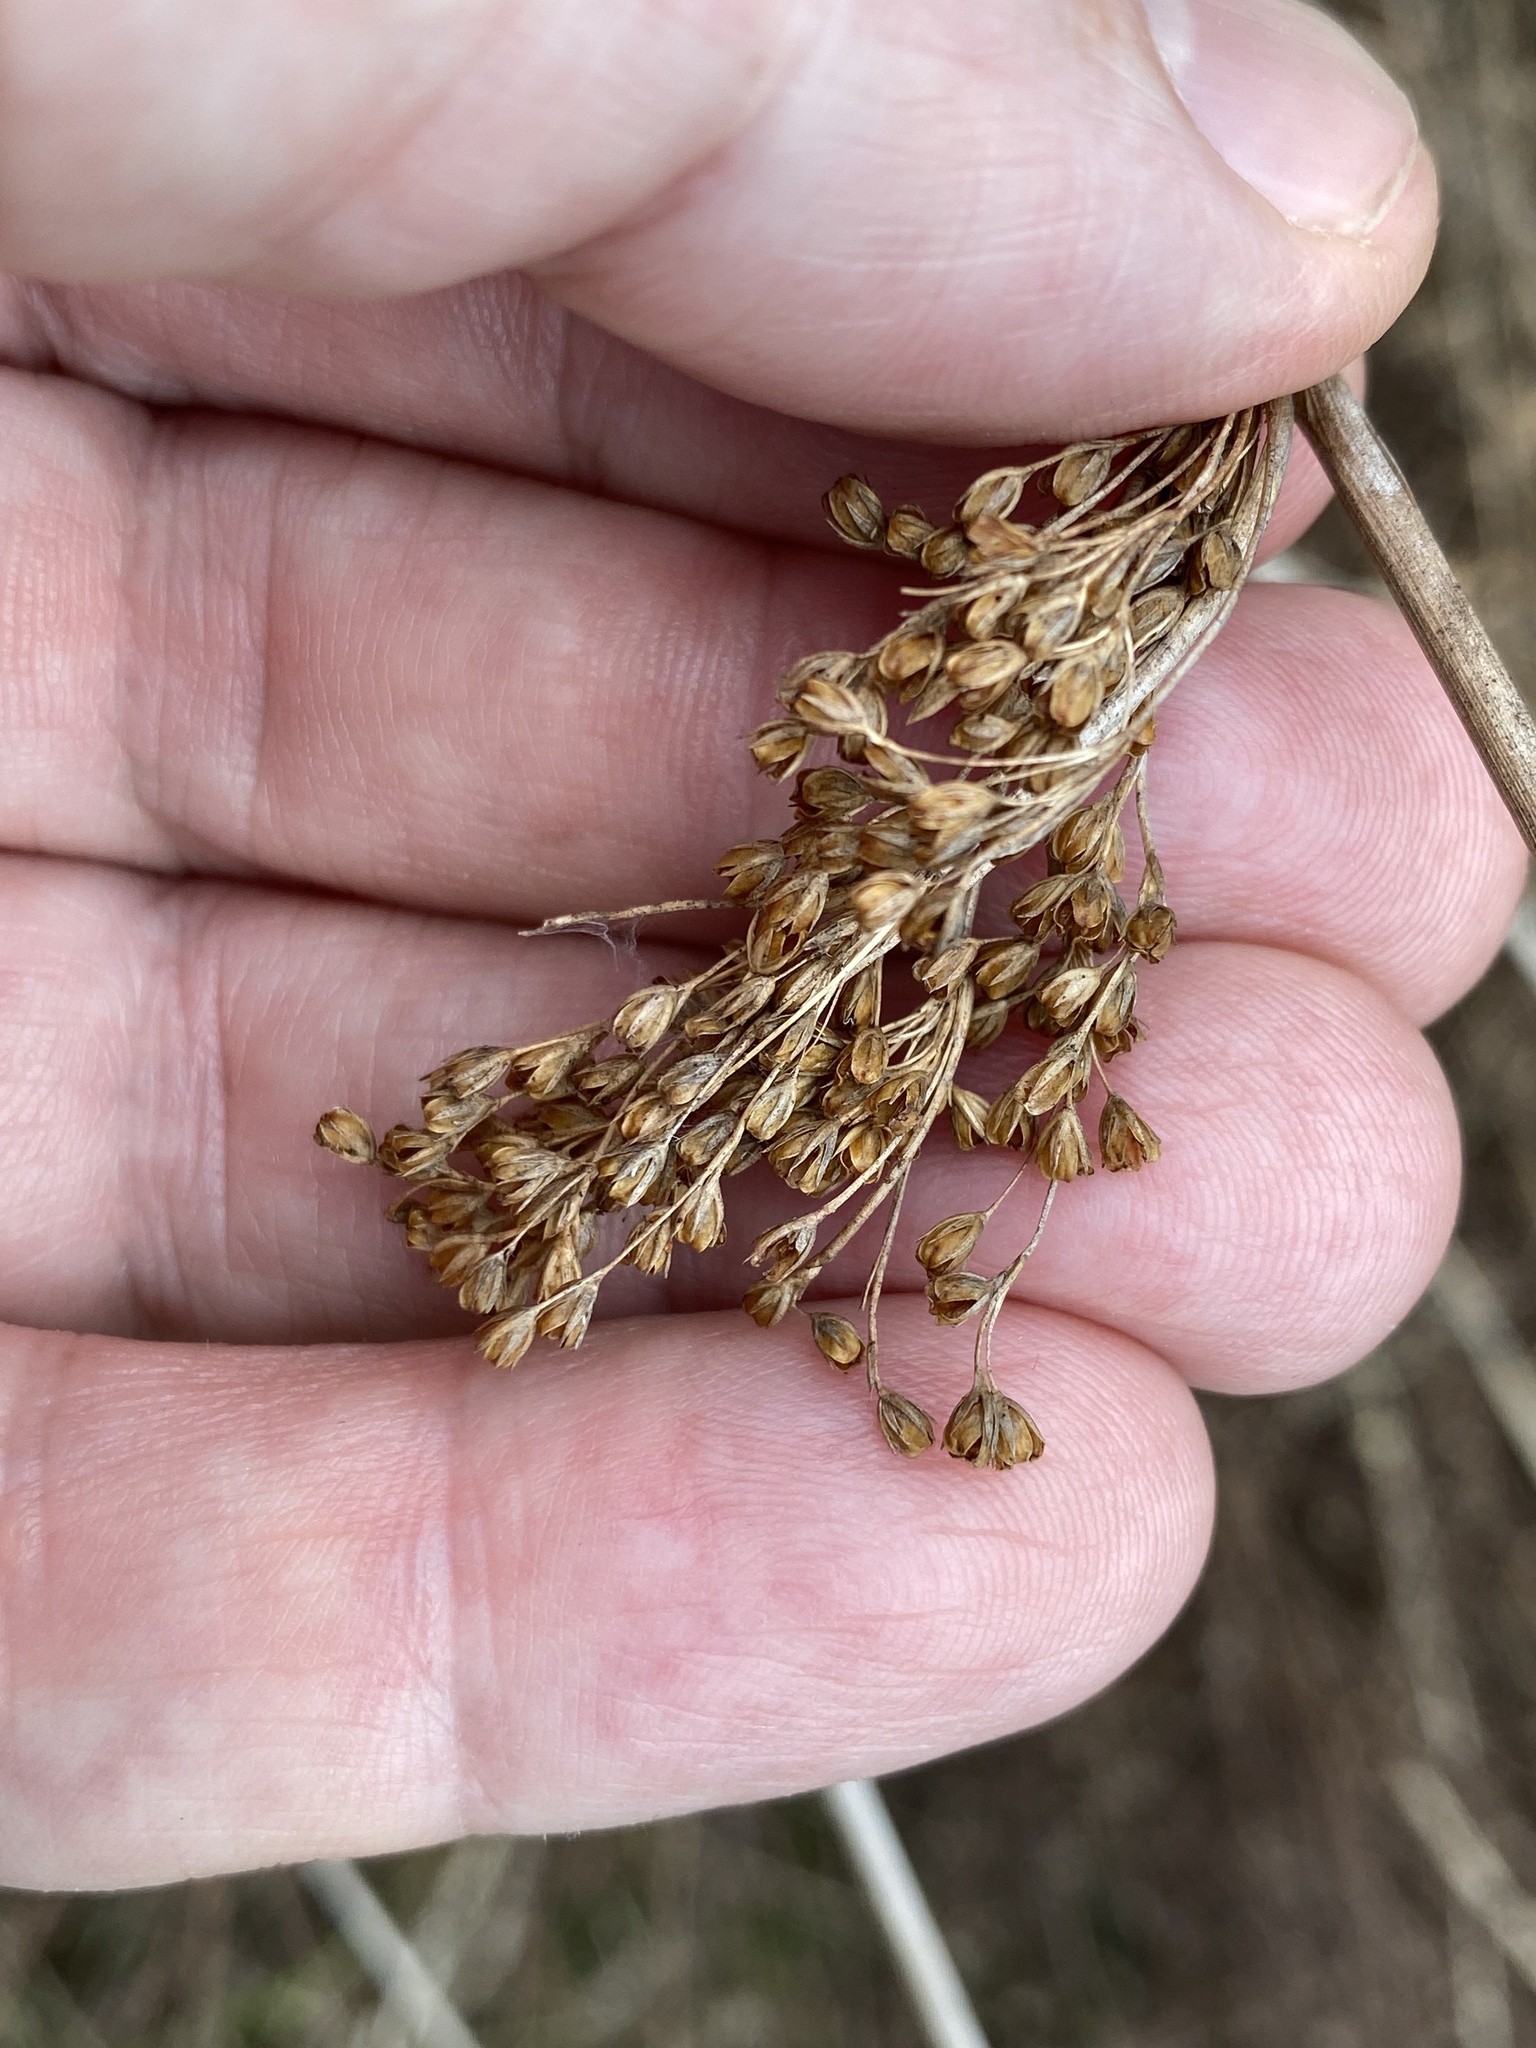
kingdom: Plantae
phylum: Tracheophyta
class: Liliopsida
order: Poales
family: Juncaceae
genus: Juncus
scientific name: Juncus effusus
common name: Soft rush
